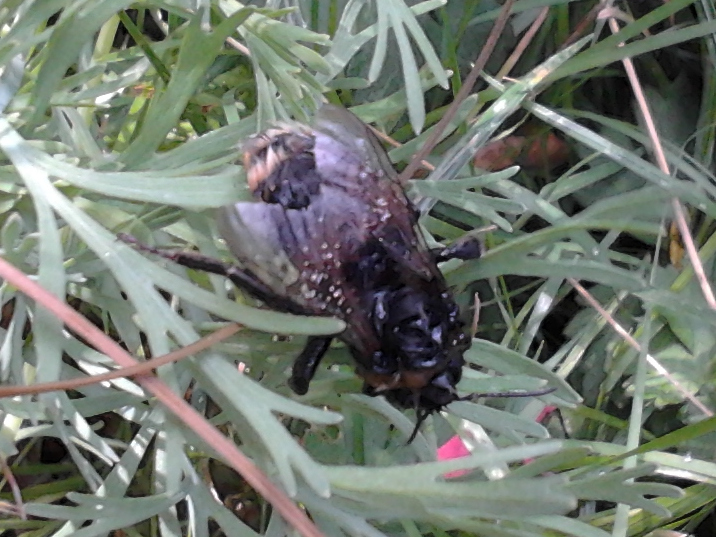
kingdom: Animalia
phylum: Arthropoda
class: Insecta
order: Hymenoptera
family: Apidae
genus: Bombus
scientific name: Bombus terrestris
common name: Buff-tailed bumblebee
